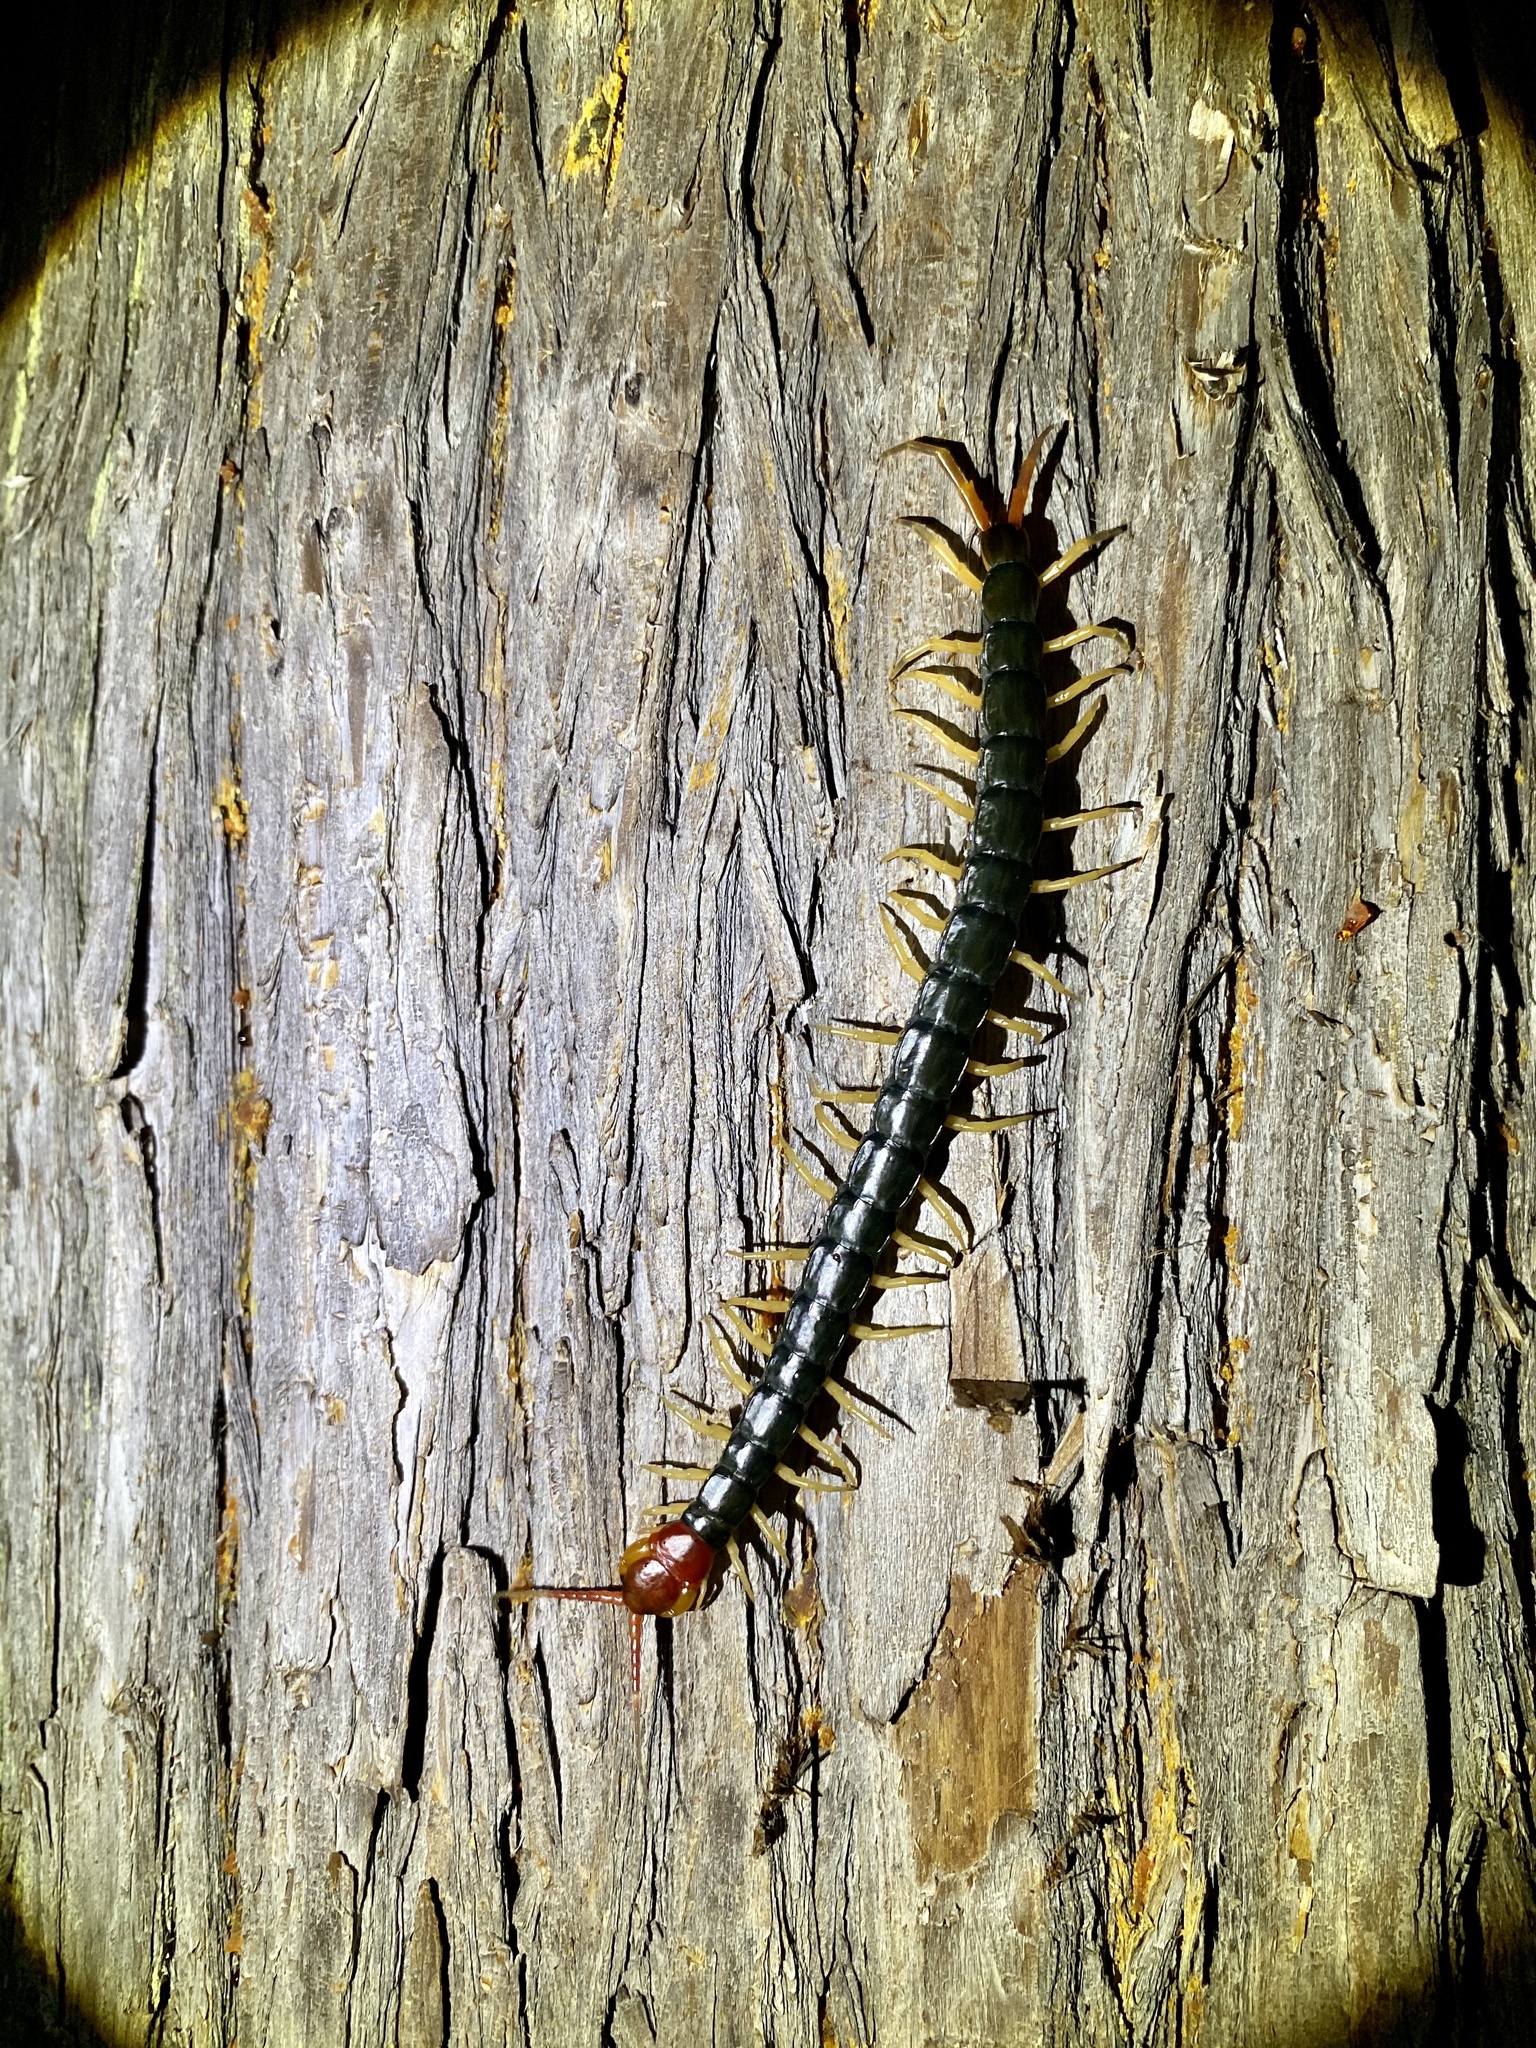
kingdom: Animalia
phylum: Arthropoda
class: Chilopoda
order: Scolopendromorpha
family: Scolopendridae
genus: Scolopendra
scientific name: Scolopendra mutilans
